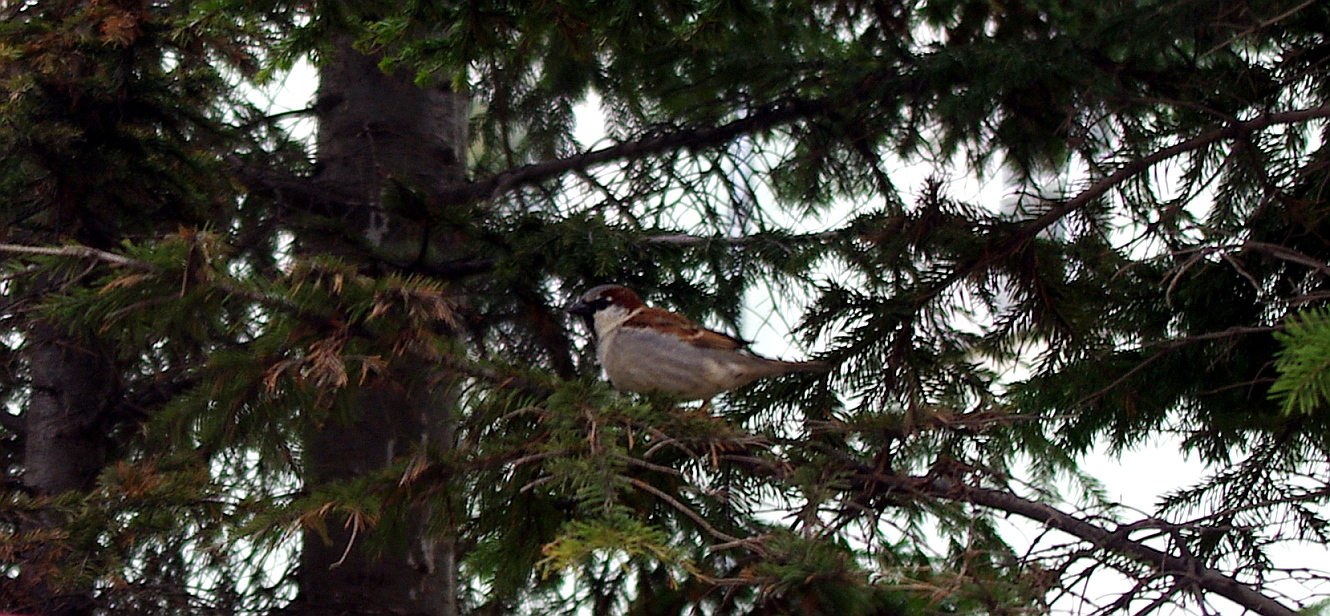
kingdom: Animalia
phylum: Chordata
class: Aves
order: Passeriformes
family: Passeridae
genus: Passer
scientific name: Passer domesticus
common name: House sparrow
